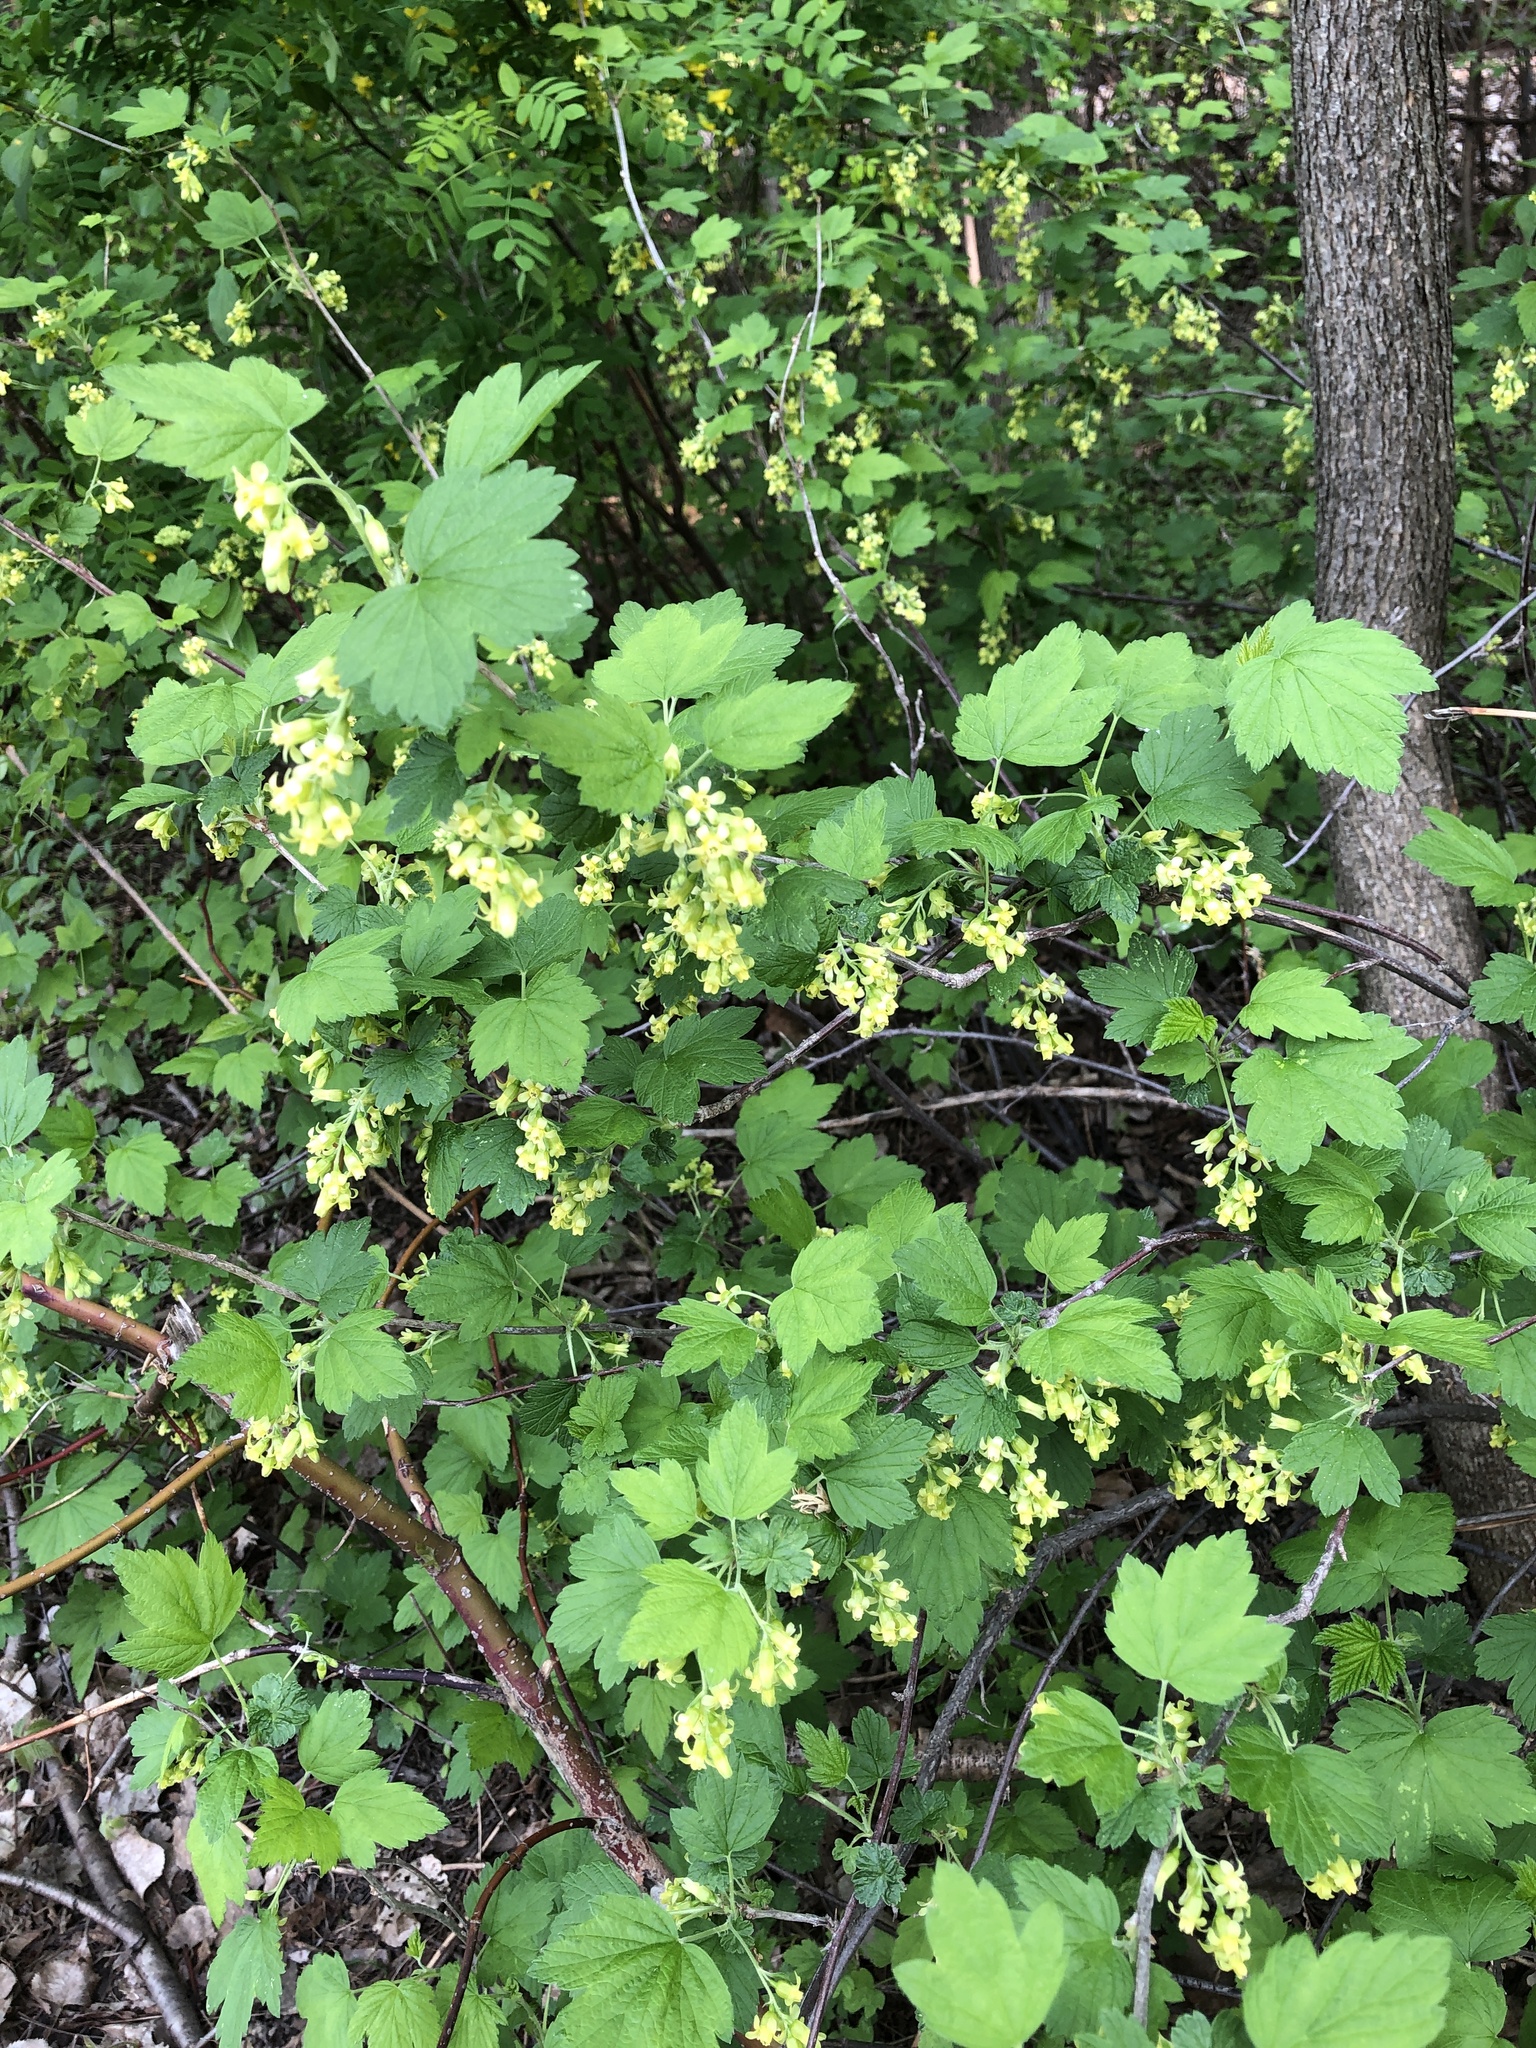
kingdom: Plantae
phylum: Tracheophyta
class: Magnoliopsida
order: Saxifragales
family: Grossulariaceae
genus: Ribes
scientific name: Ribes americanum
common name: American black currant
